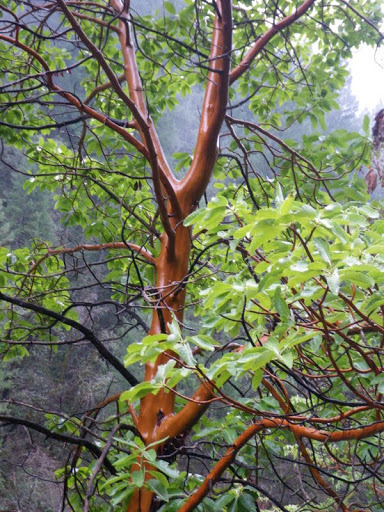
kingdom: Plantae
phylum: Tracheophyta
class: Magnoliopsida
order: Ericales
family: Ericaceae
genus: Arbutus
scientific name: Arbutus menziesii
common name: Pacific madrone
